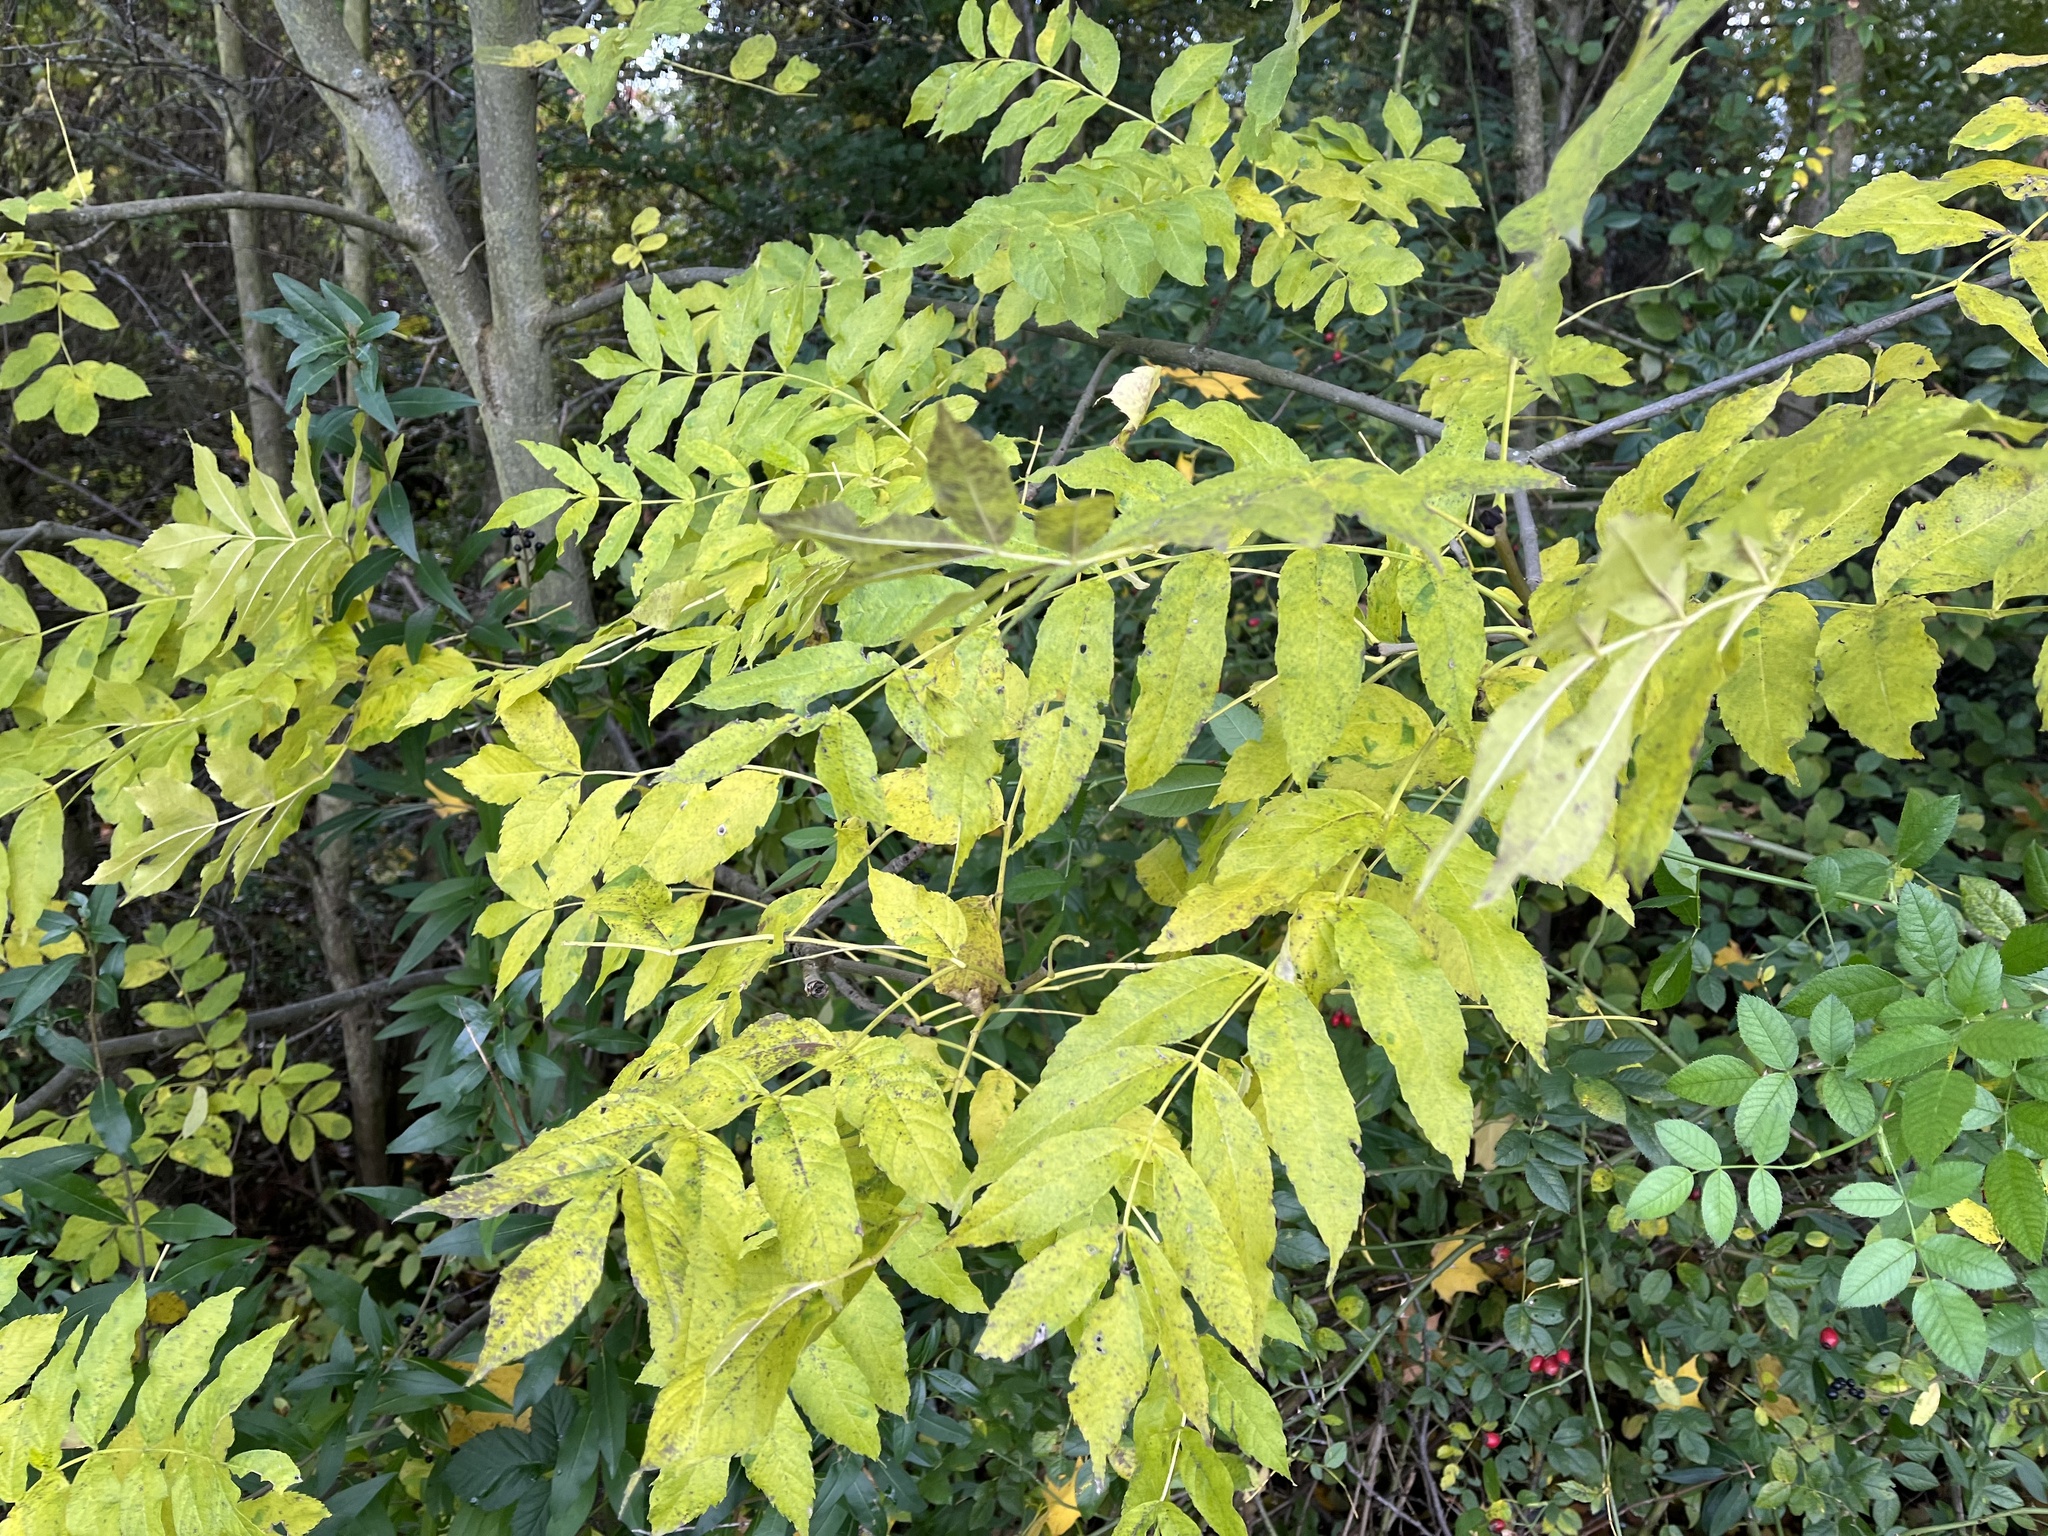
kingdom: Plantae
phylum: Tracheophyta
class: Magnoliopsida
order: Lamiales
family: Oleaceae
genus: Fraxinus
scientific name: Fraxinus excelsior
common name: European ash
